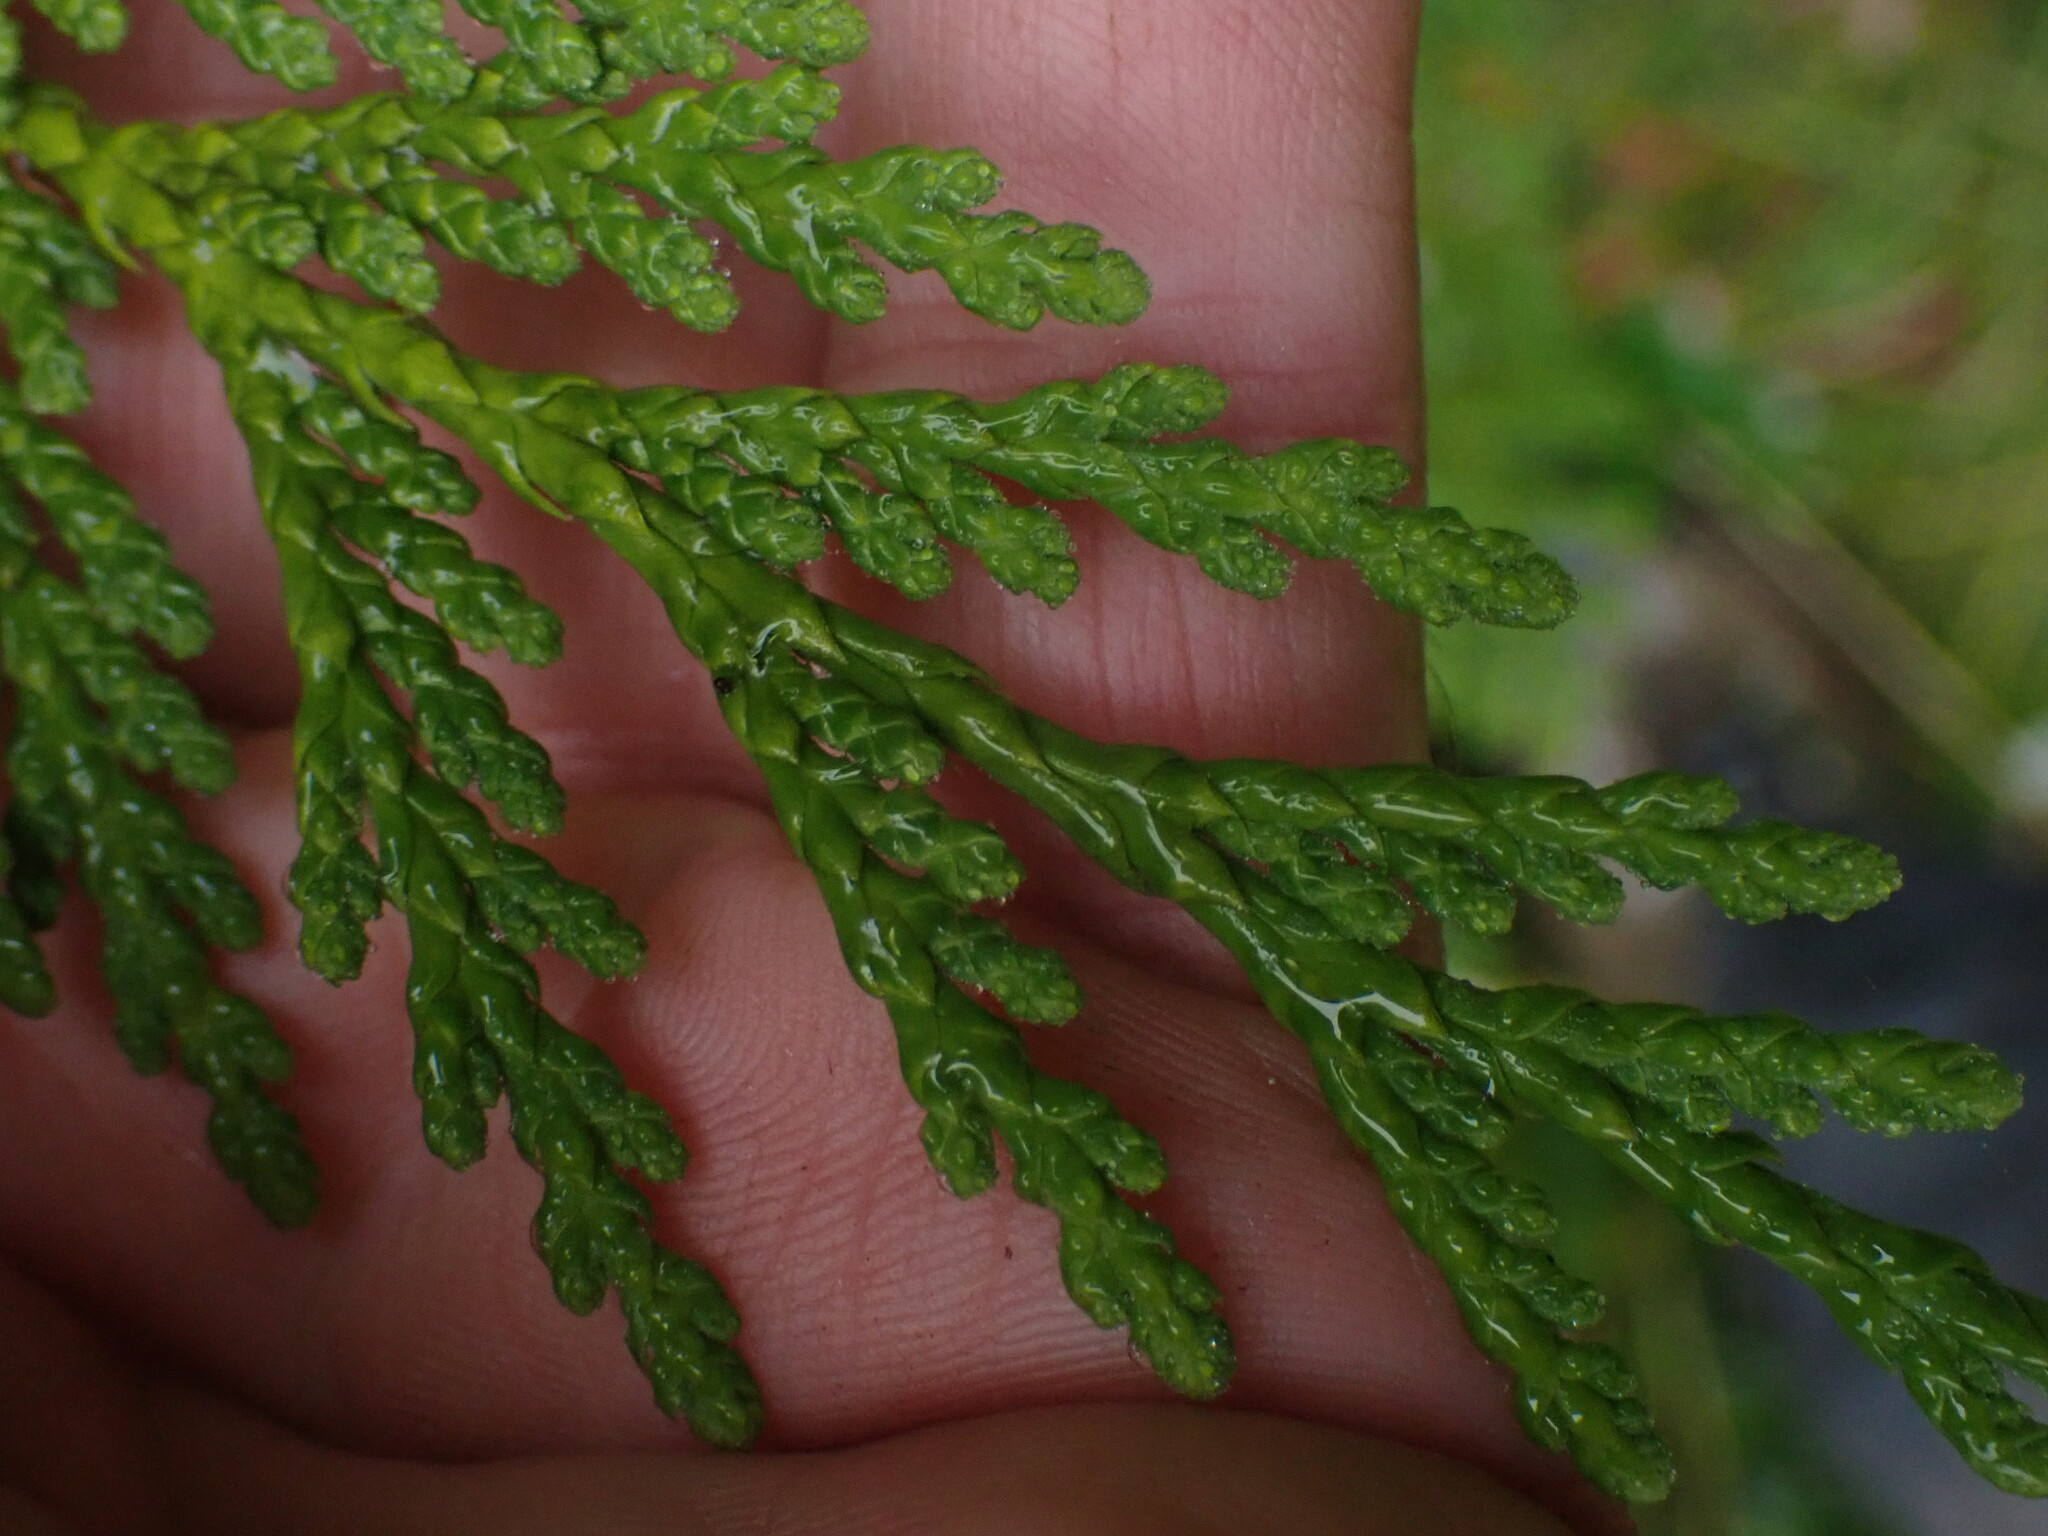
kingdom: Plantae
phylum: Tracheophyta
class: Pinopsida
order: Pinales
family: Cupressaceae
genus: Thuja
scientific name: Thuja plicata
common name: Western red-cedar
